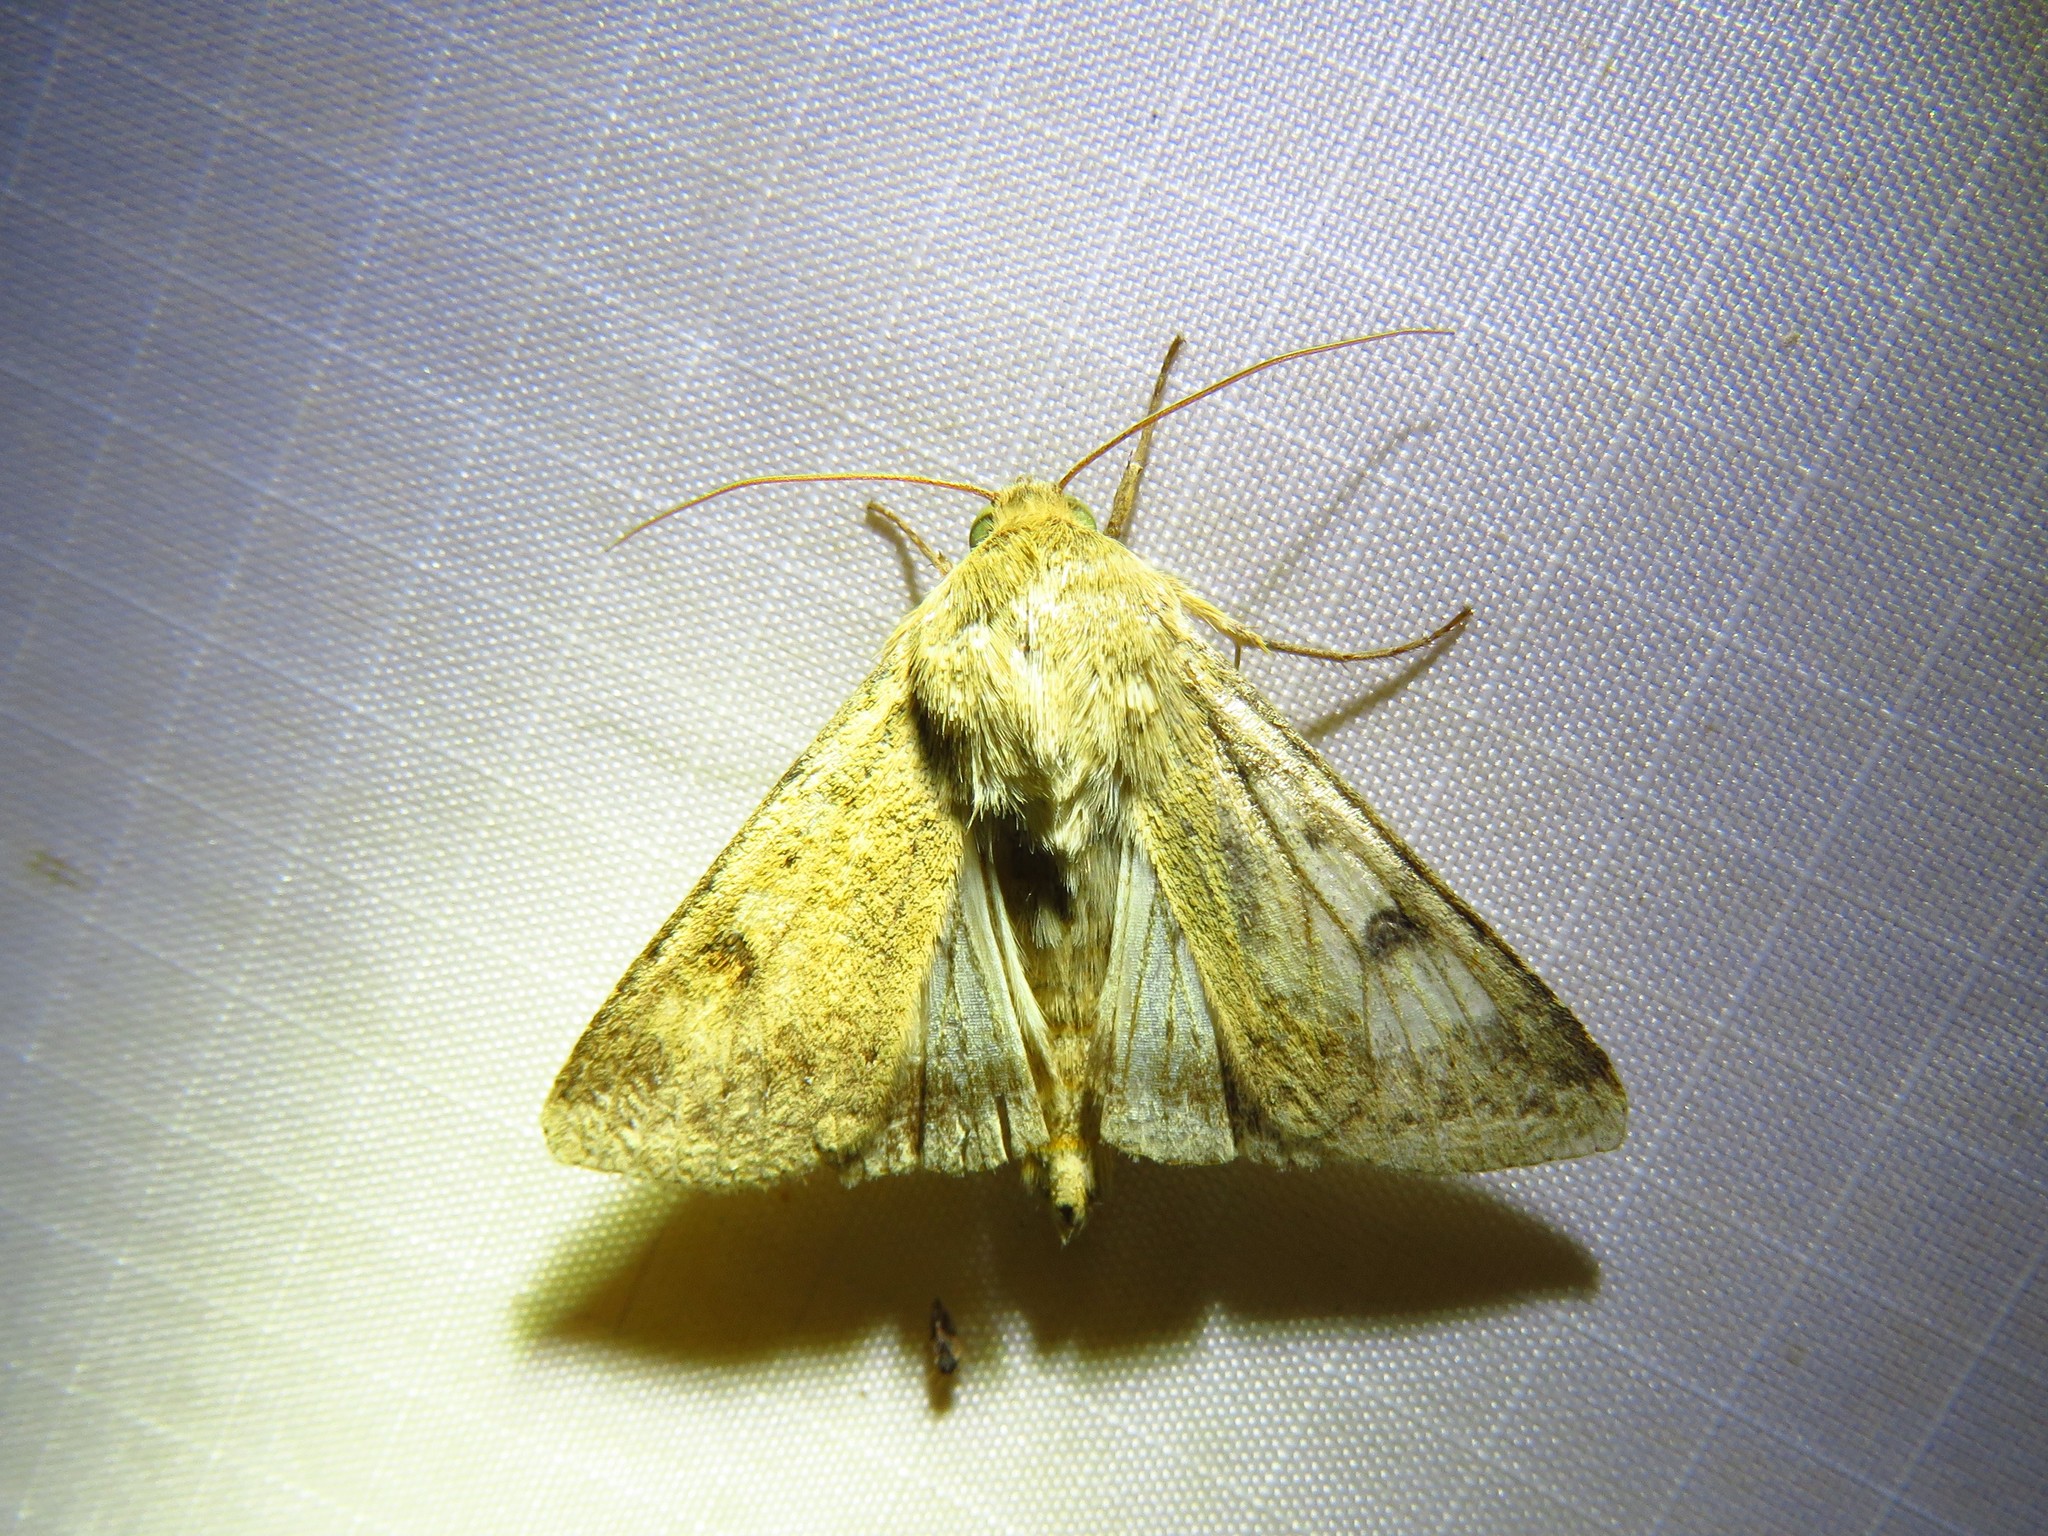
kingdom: Animalia
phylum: Arthropoda
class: Insecta
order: Lepidoptera
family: Noctuidae
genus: Helicoverpa
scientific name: Helicoverpa zea
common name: Bollworm
